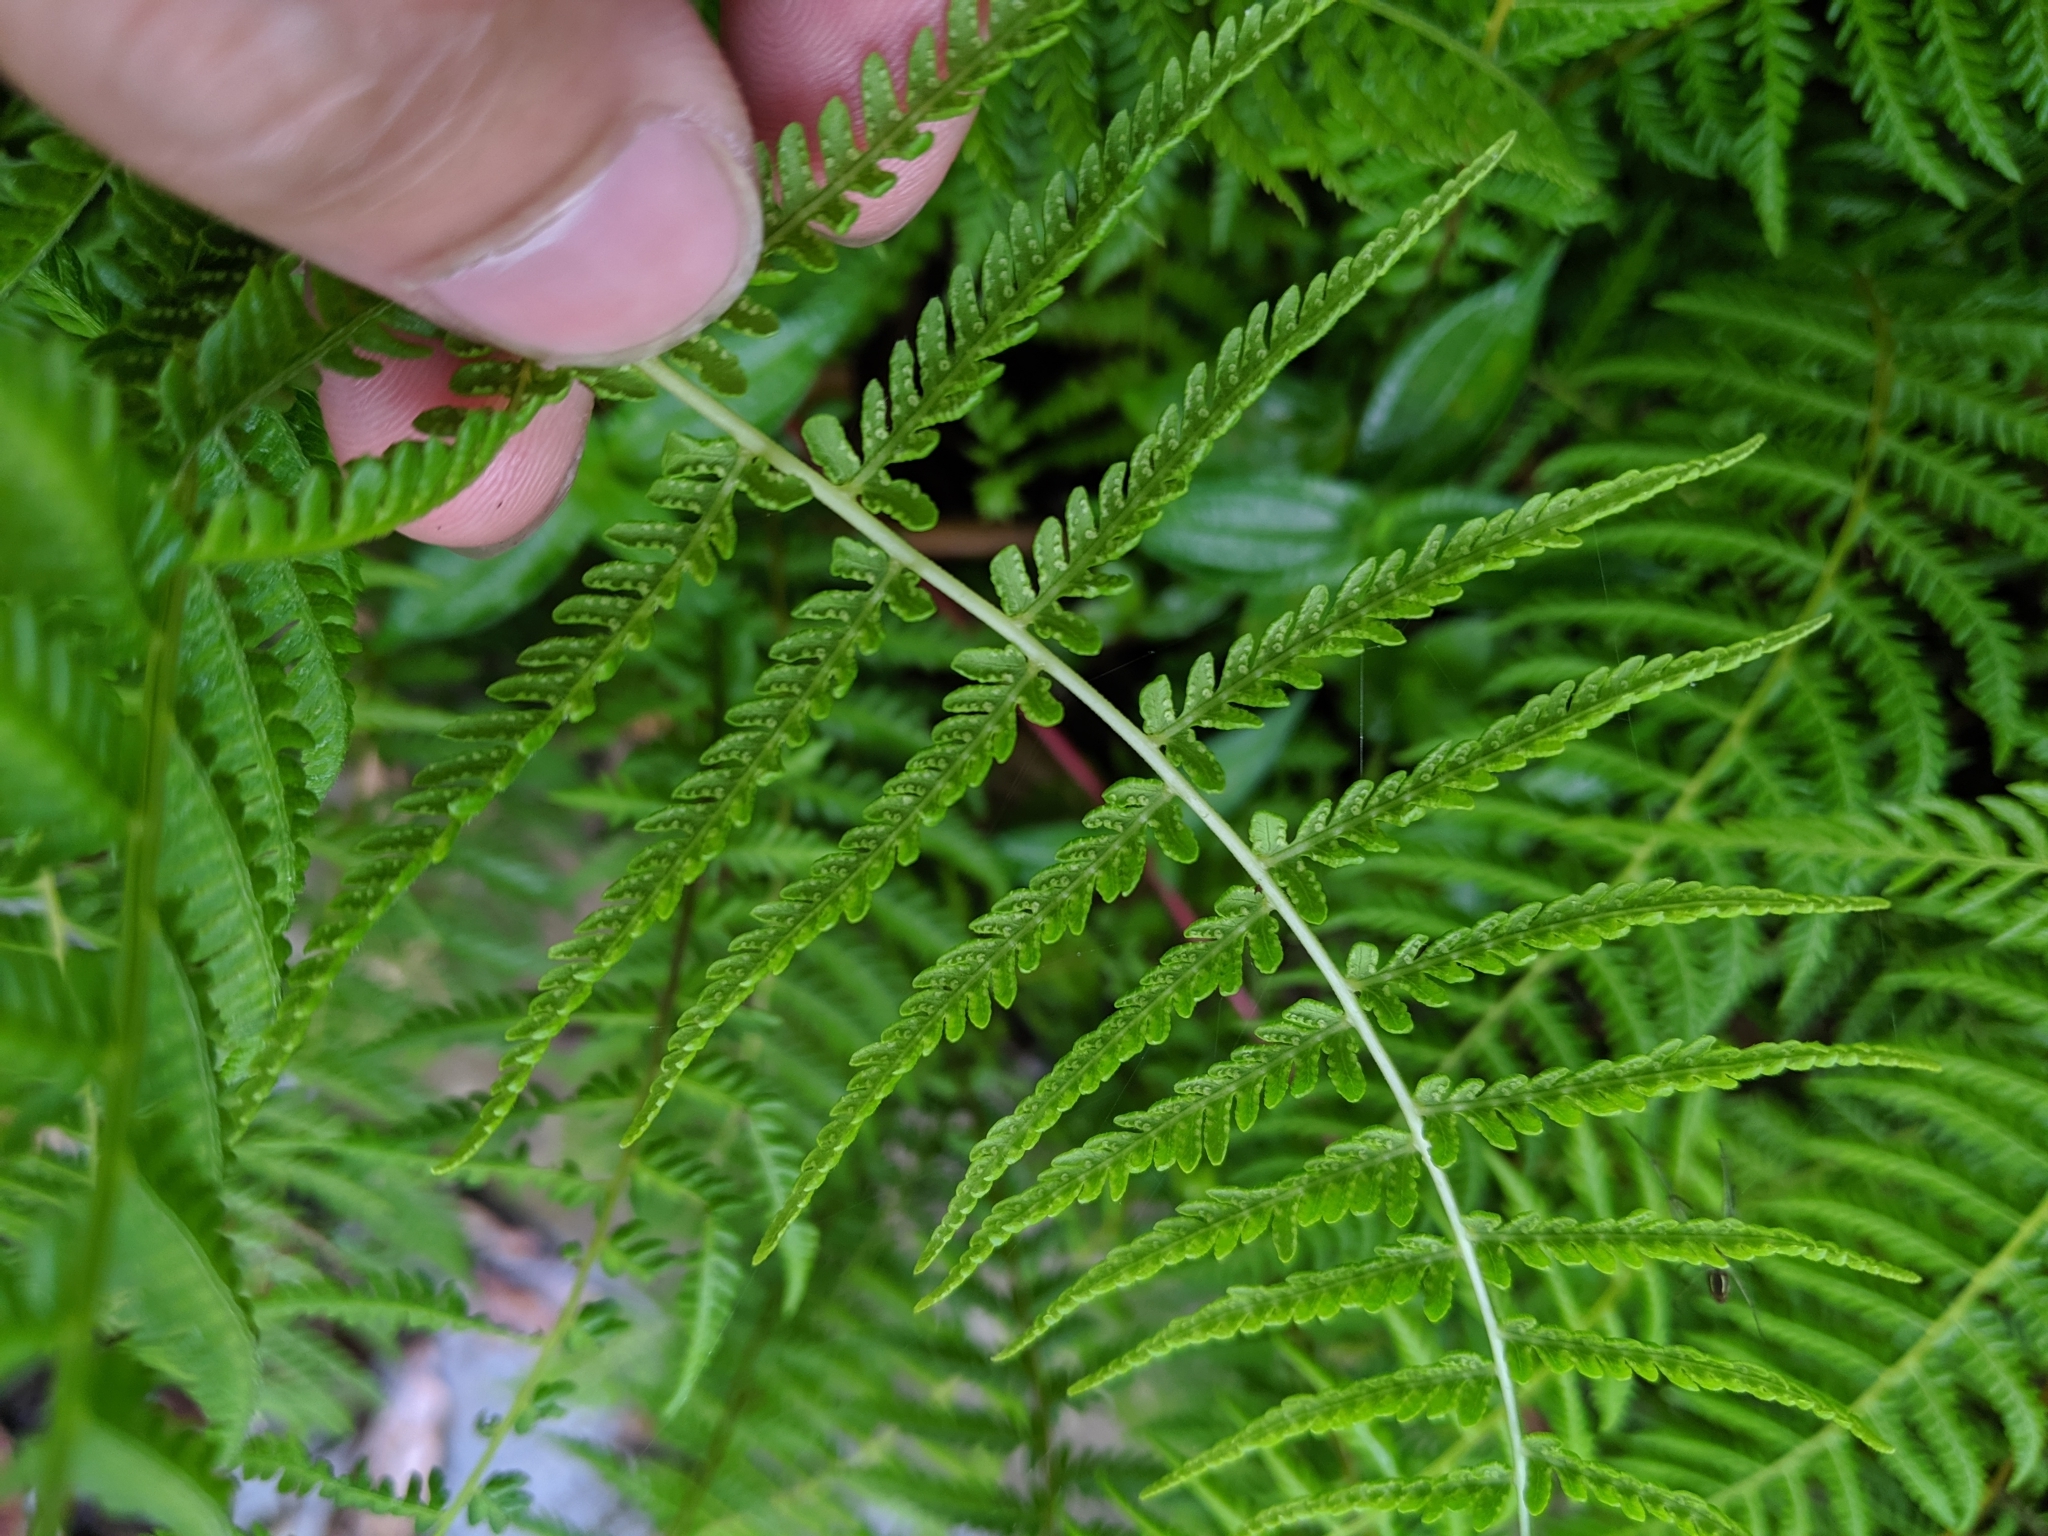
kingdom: Plantae
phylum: Tracheophyta
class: Polypodiopsida
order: Polypodiales
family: Thelypteridaceae
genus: Amauropelta
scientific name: Amauropelta beddomei
